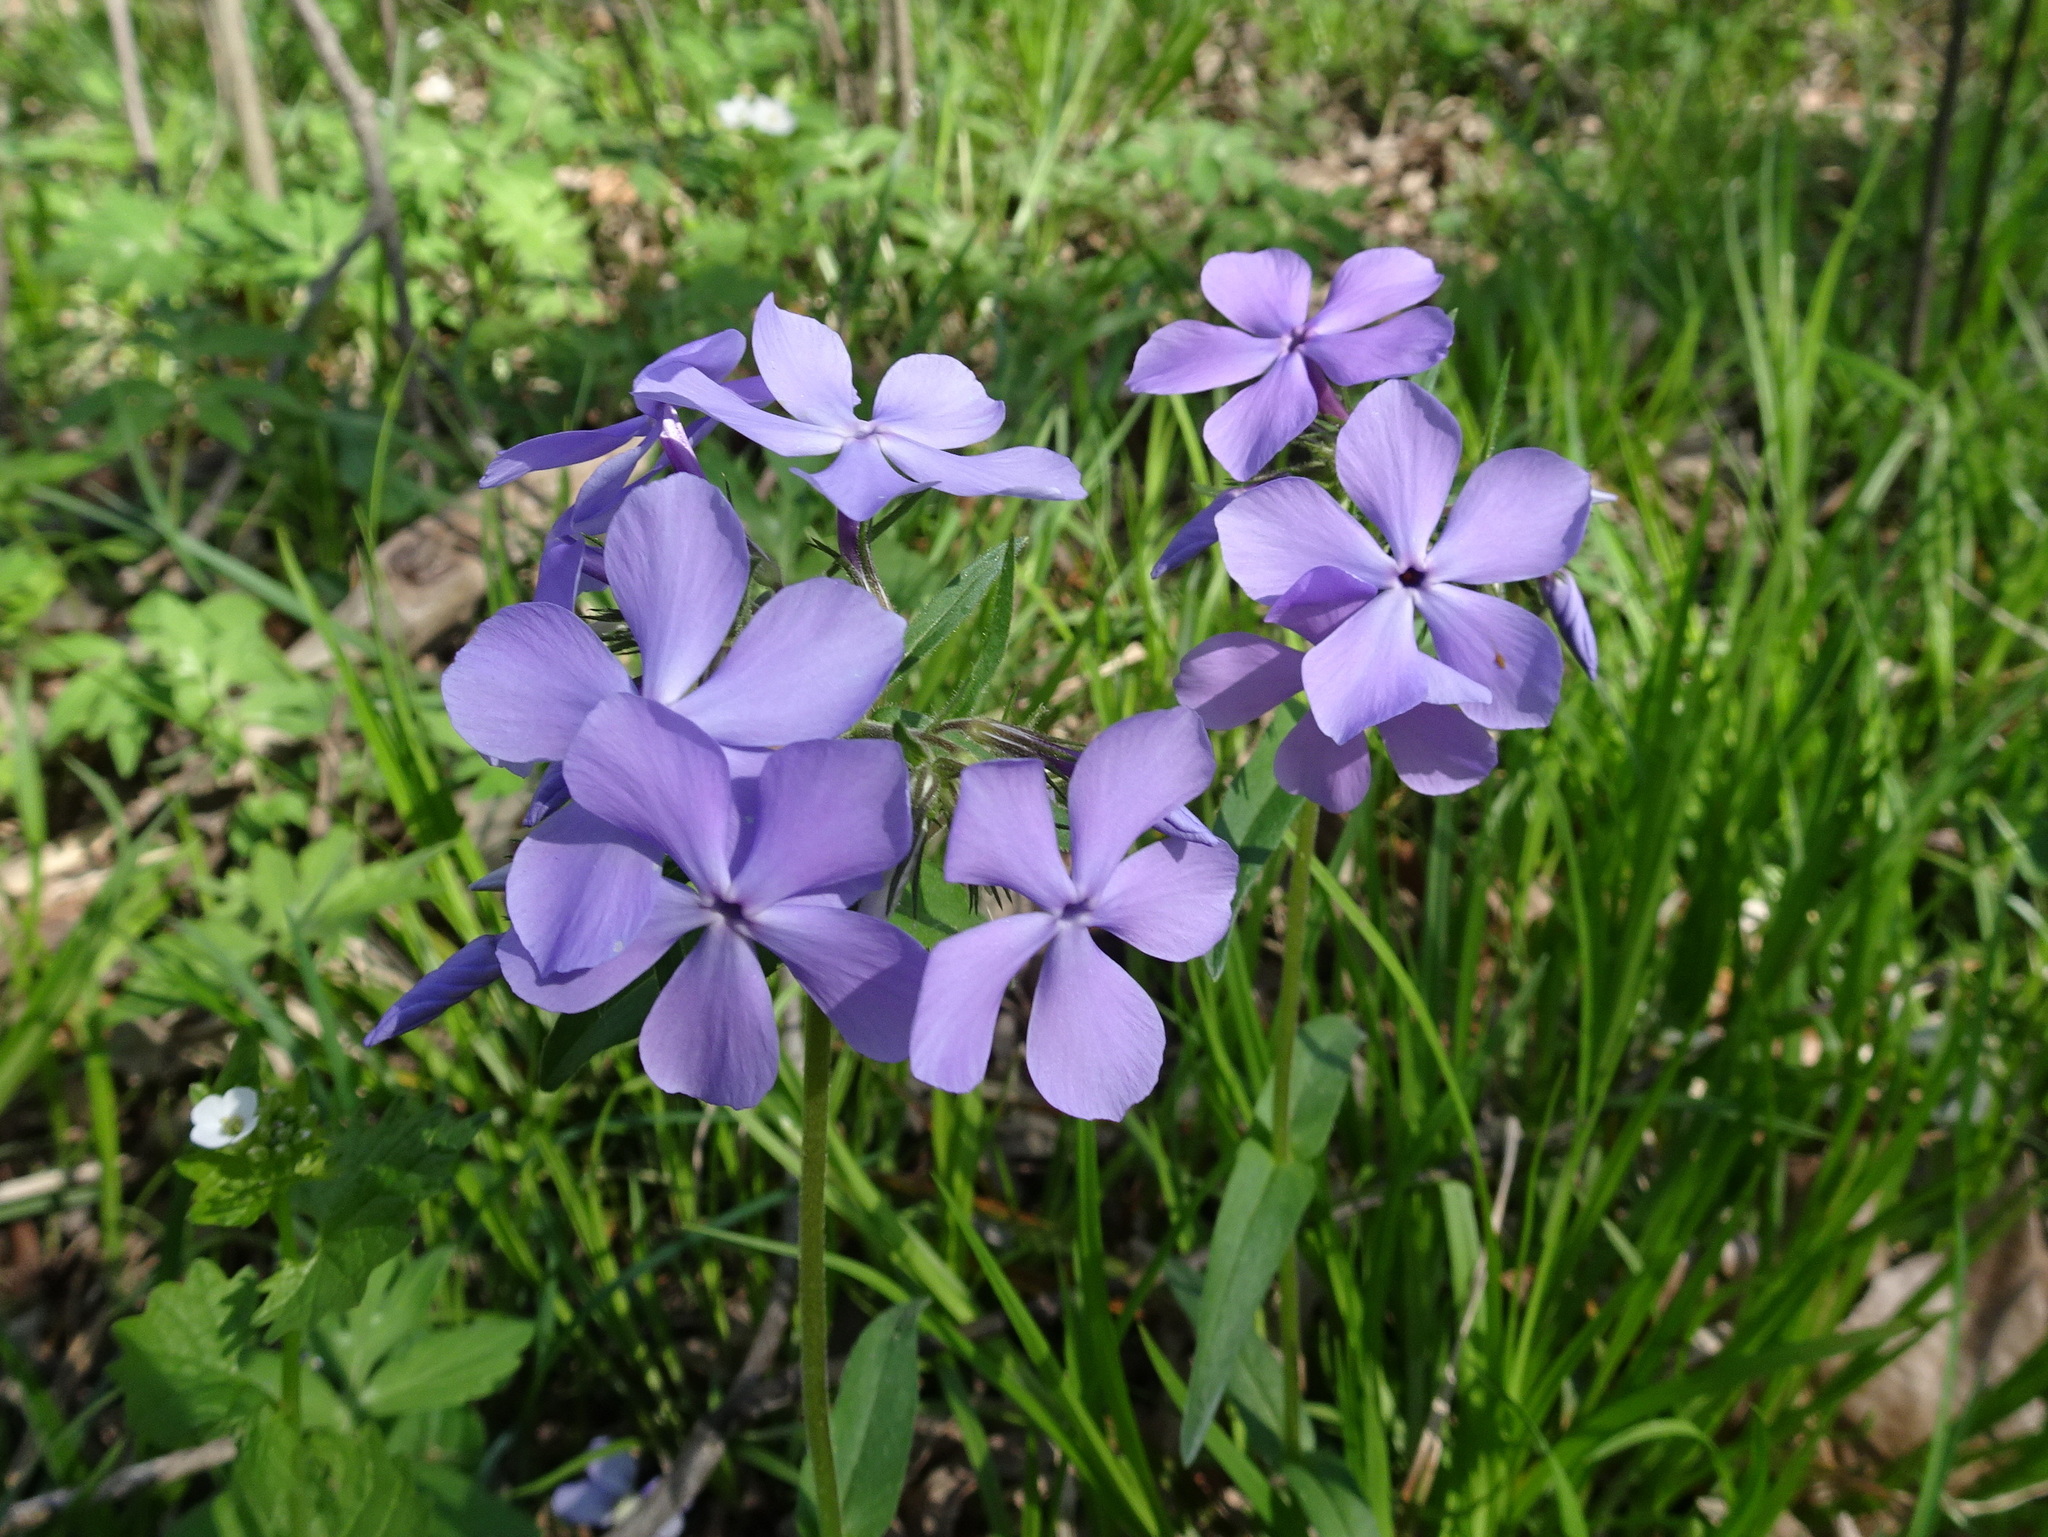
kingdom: Plantae
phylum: Tracheophyta
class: Magnoliopsida
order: Ericales
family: Polemoniaceae
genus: Phlox
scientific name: Phlox divaricata
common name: Blue phlox
